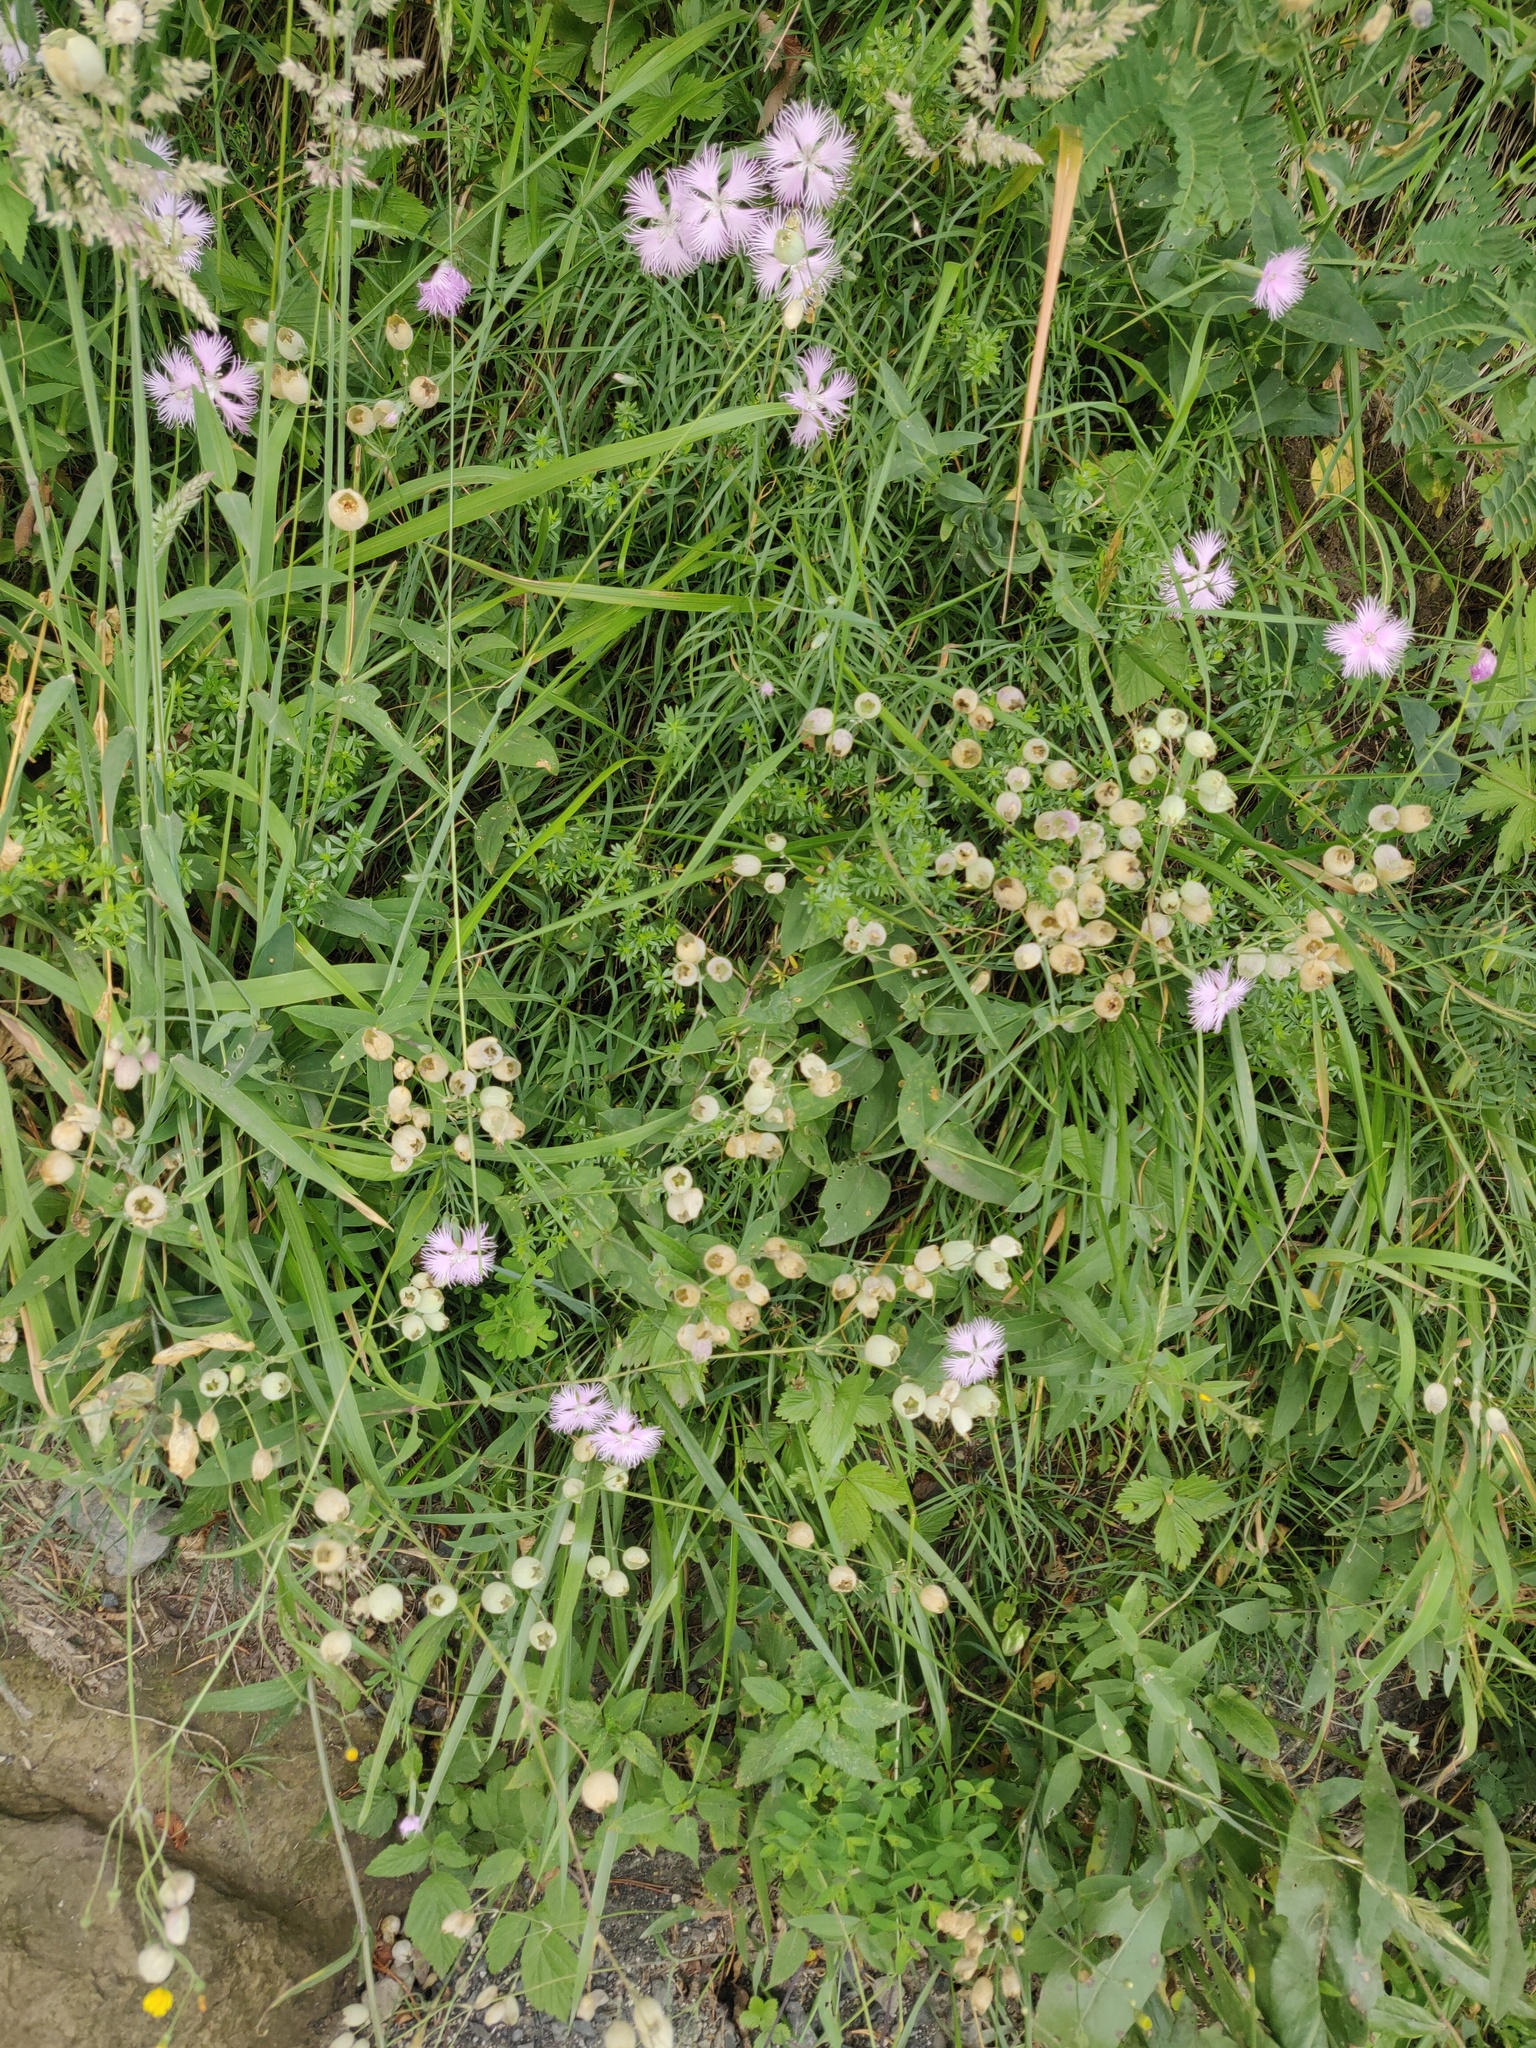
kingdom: Plantae
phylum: Tracheophyta
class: Magnoliopsida
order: Caryophyllales
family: Caryophyllaceae
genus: Silene
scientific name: Silene vulgaris
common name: Bladder campion
